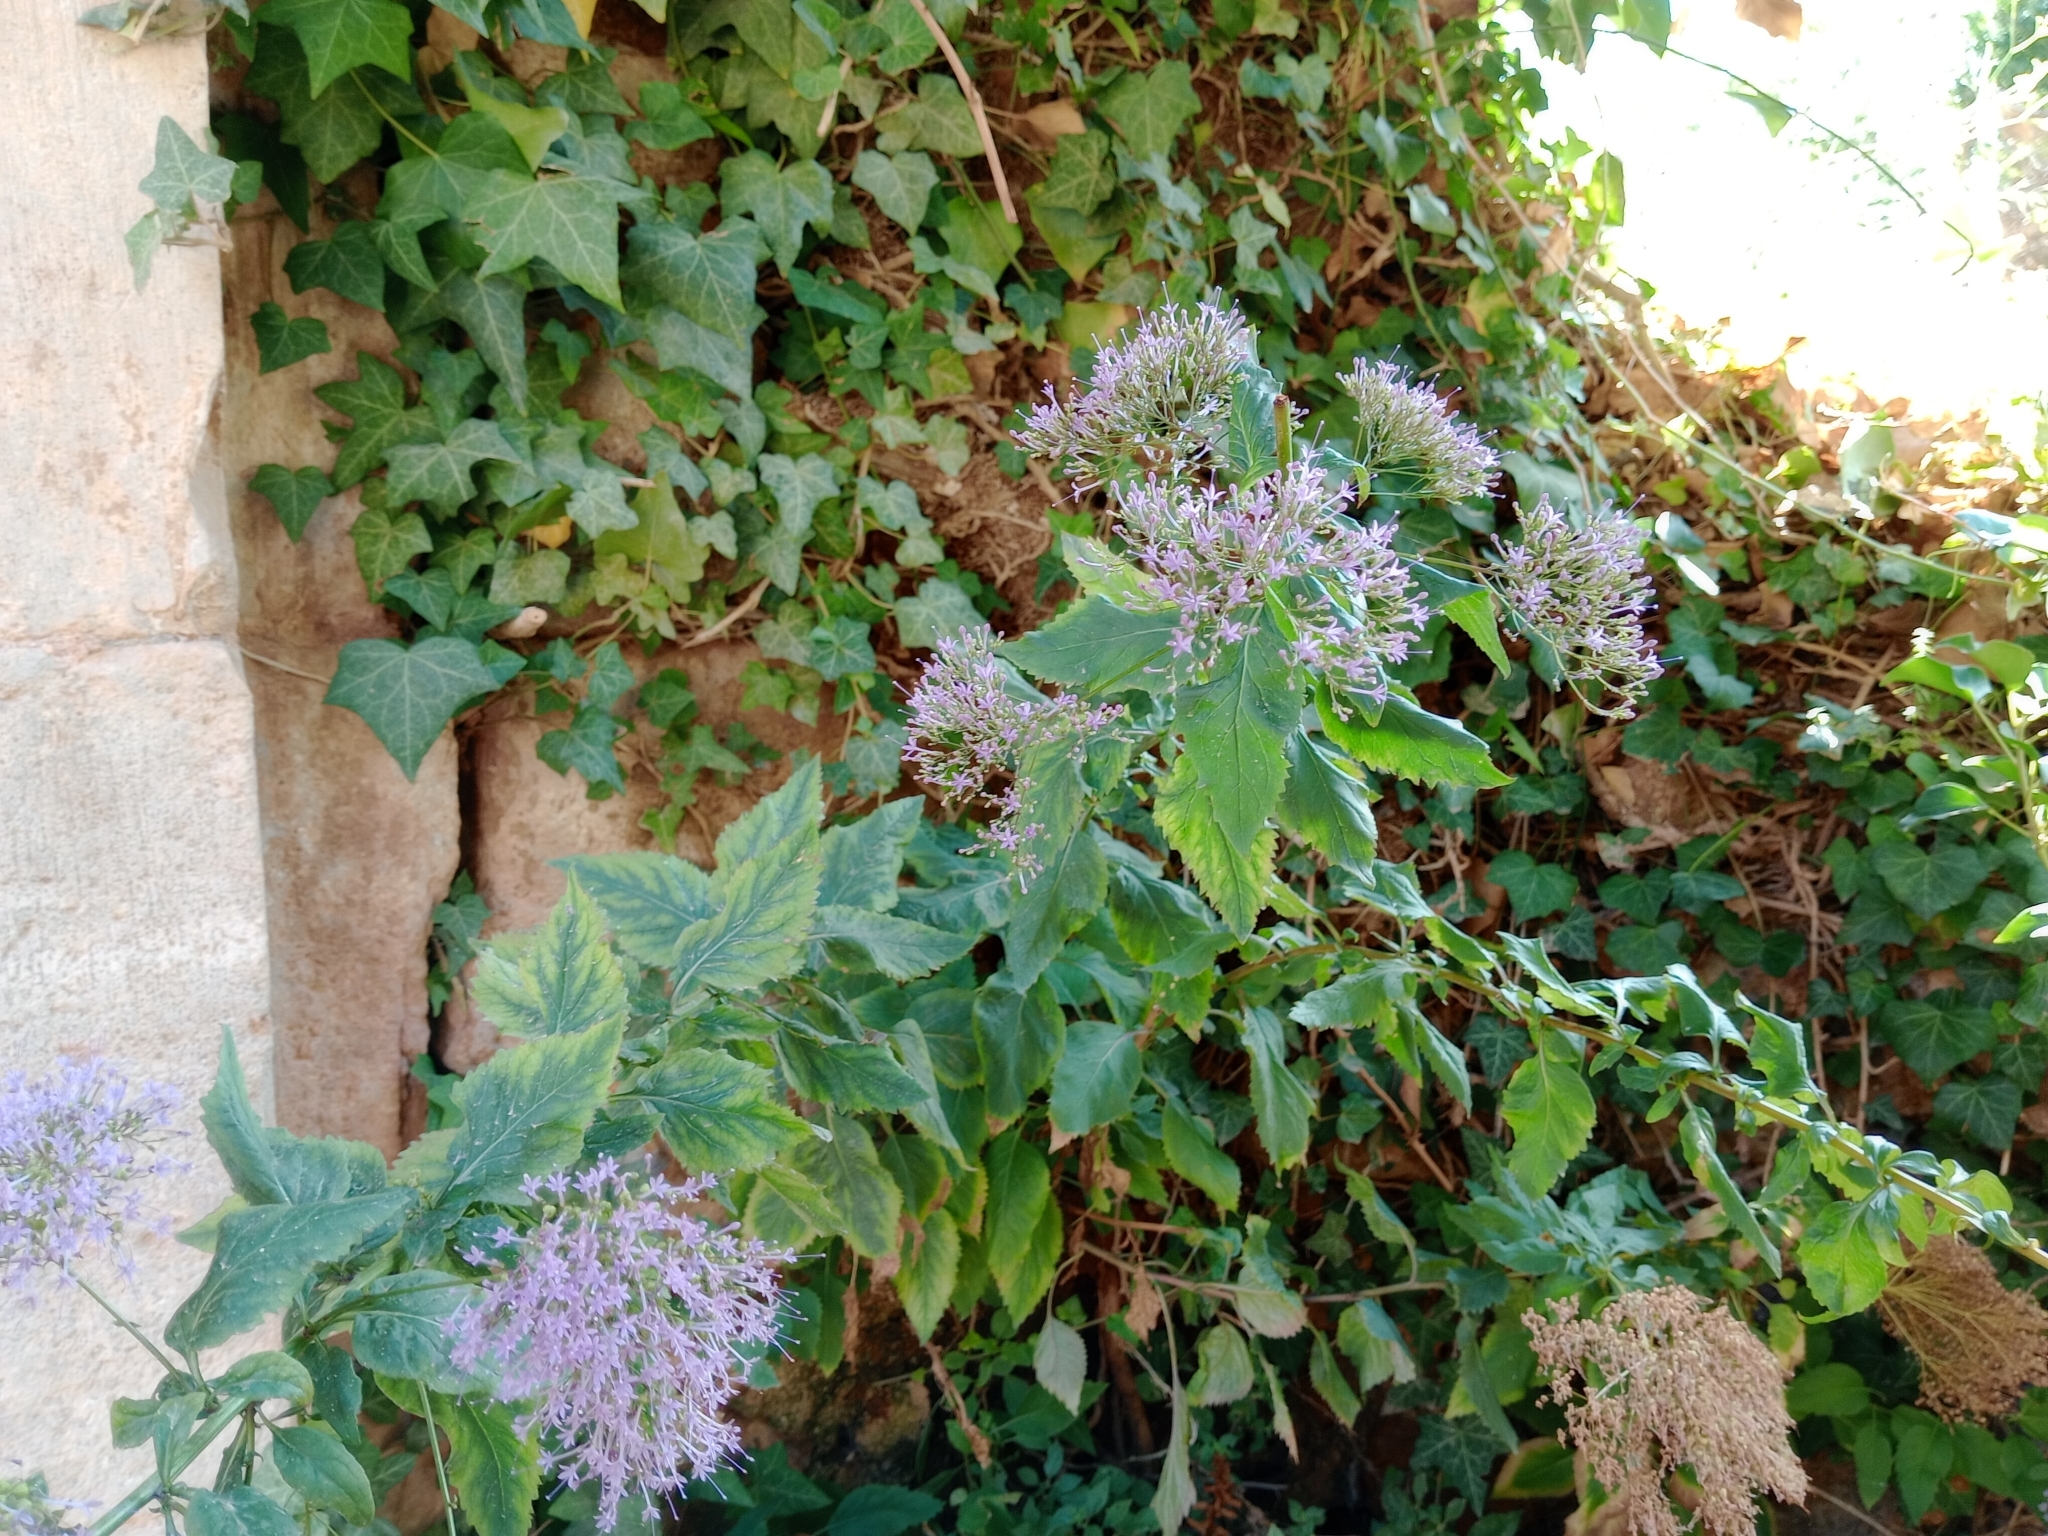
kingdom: Plantae
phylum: Tracheophyta
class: Magnoliopsida
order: Asterales
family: Campanulaceae
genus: Trachelium
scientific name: Trachelium caeruleum
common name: Throatwort
